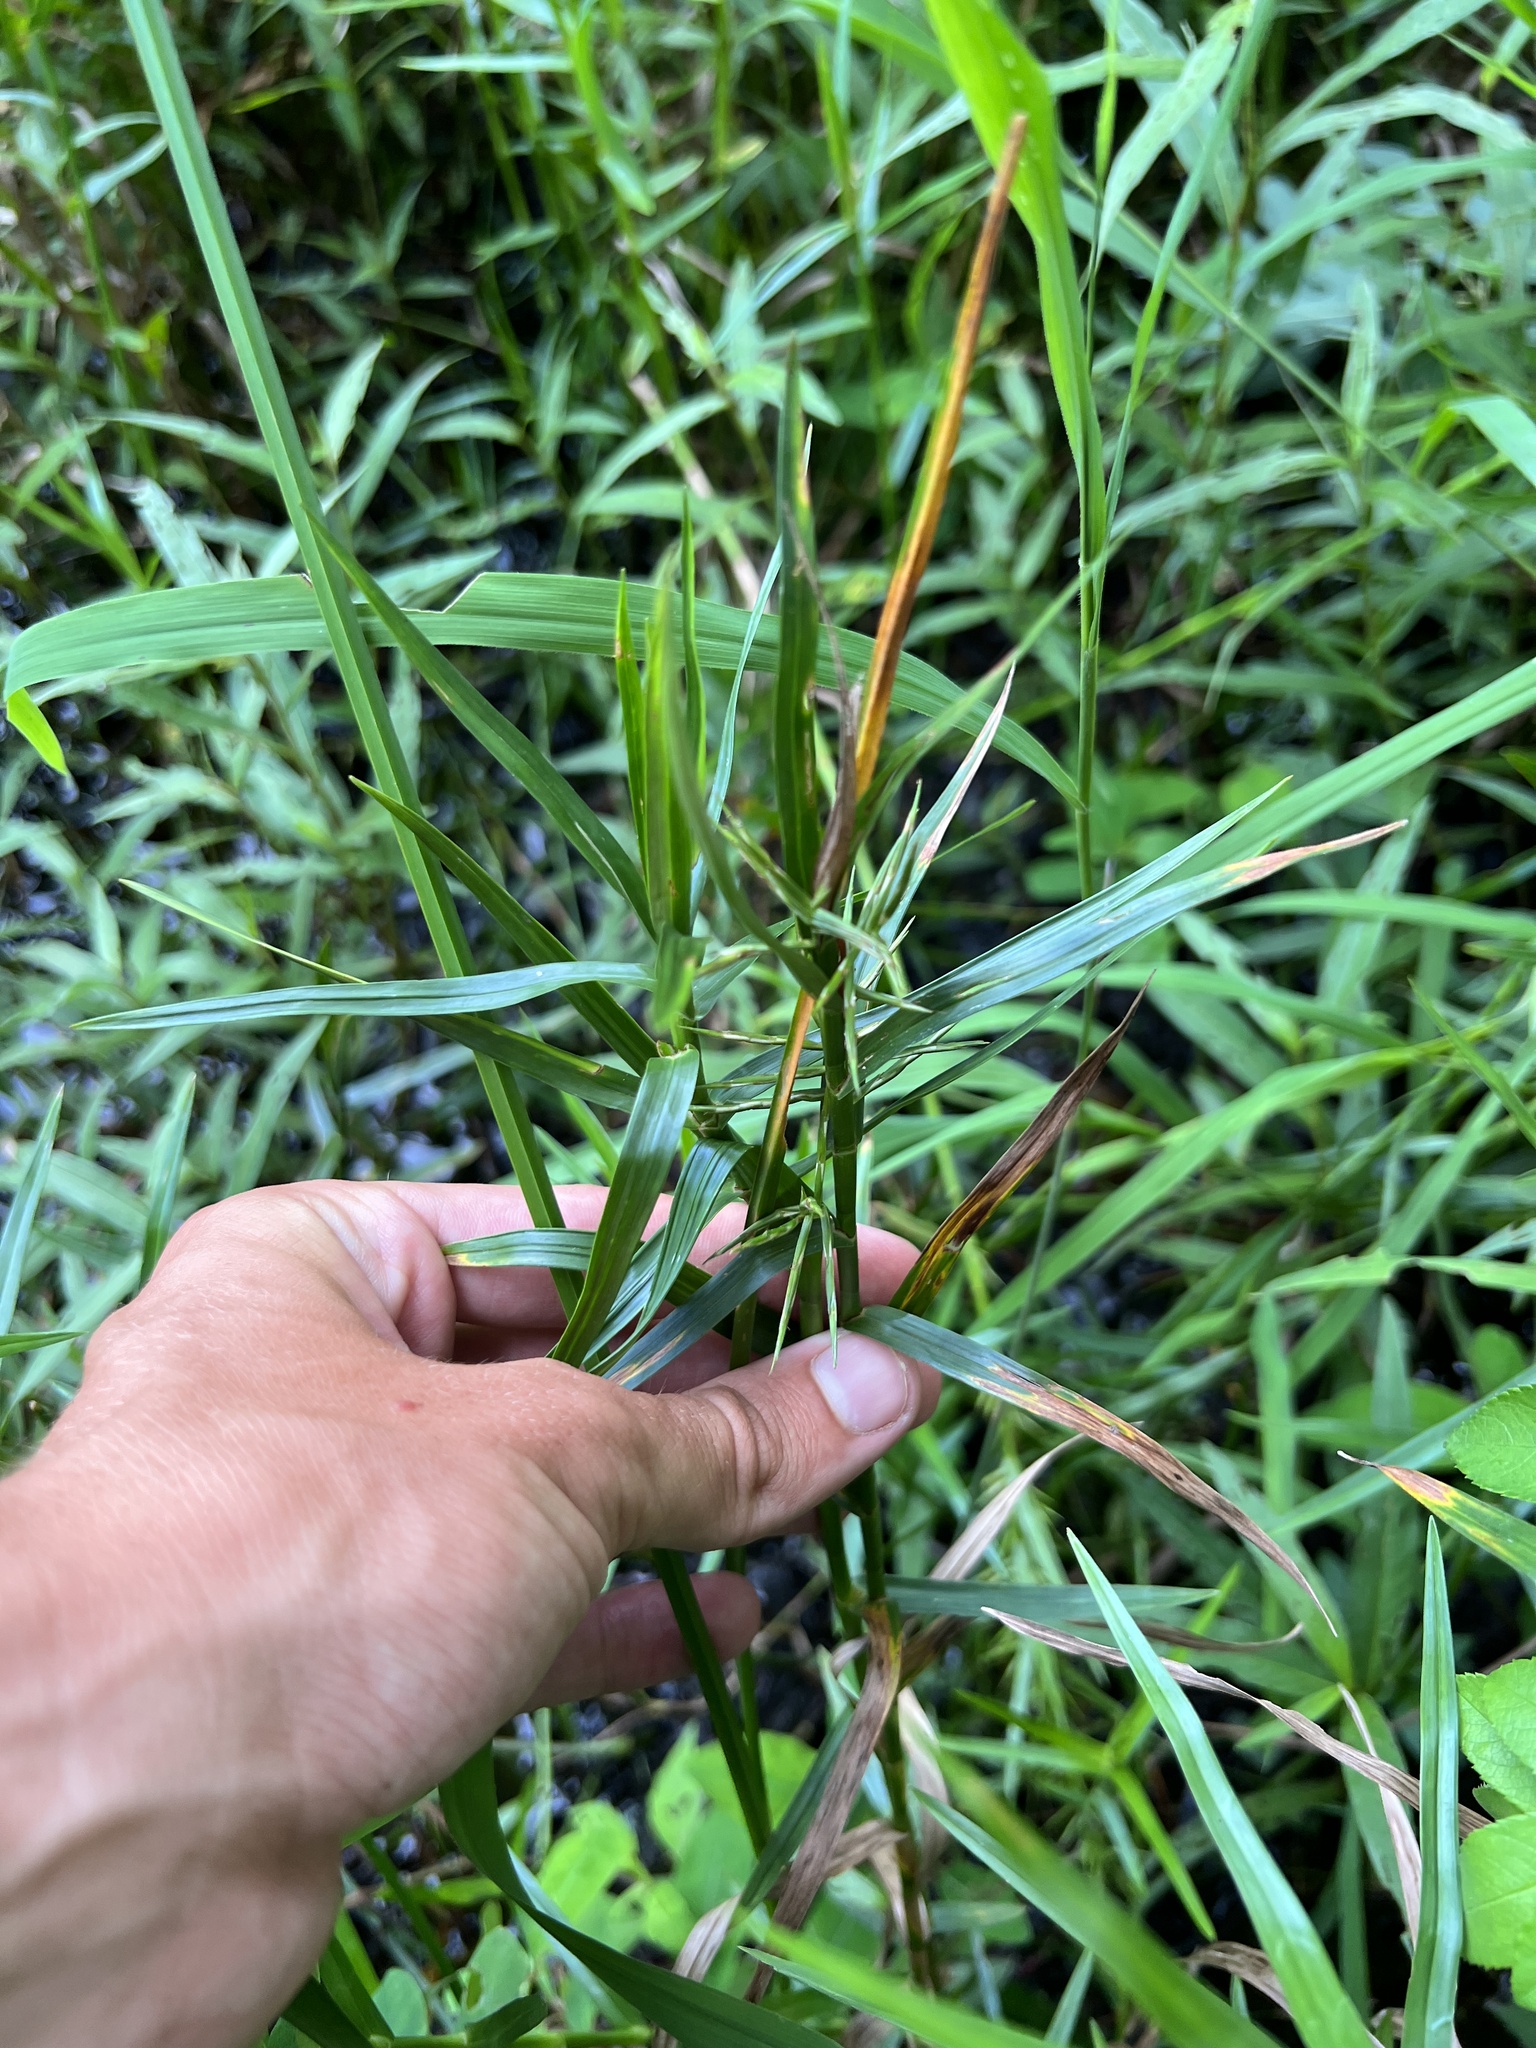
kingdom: Plantae
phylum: Tracheophyta
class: Liliopsida
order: Poales
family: Cyperaceae
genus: Dulichium
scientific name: Dulichium arundinaceum
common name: Three-way sedge
